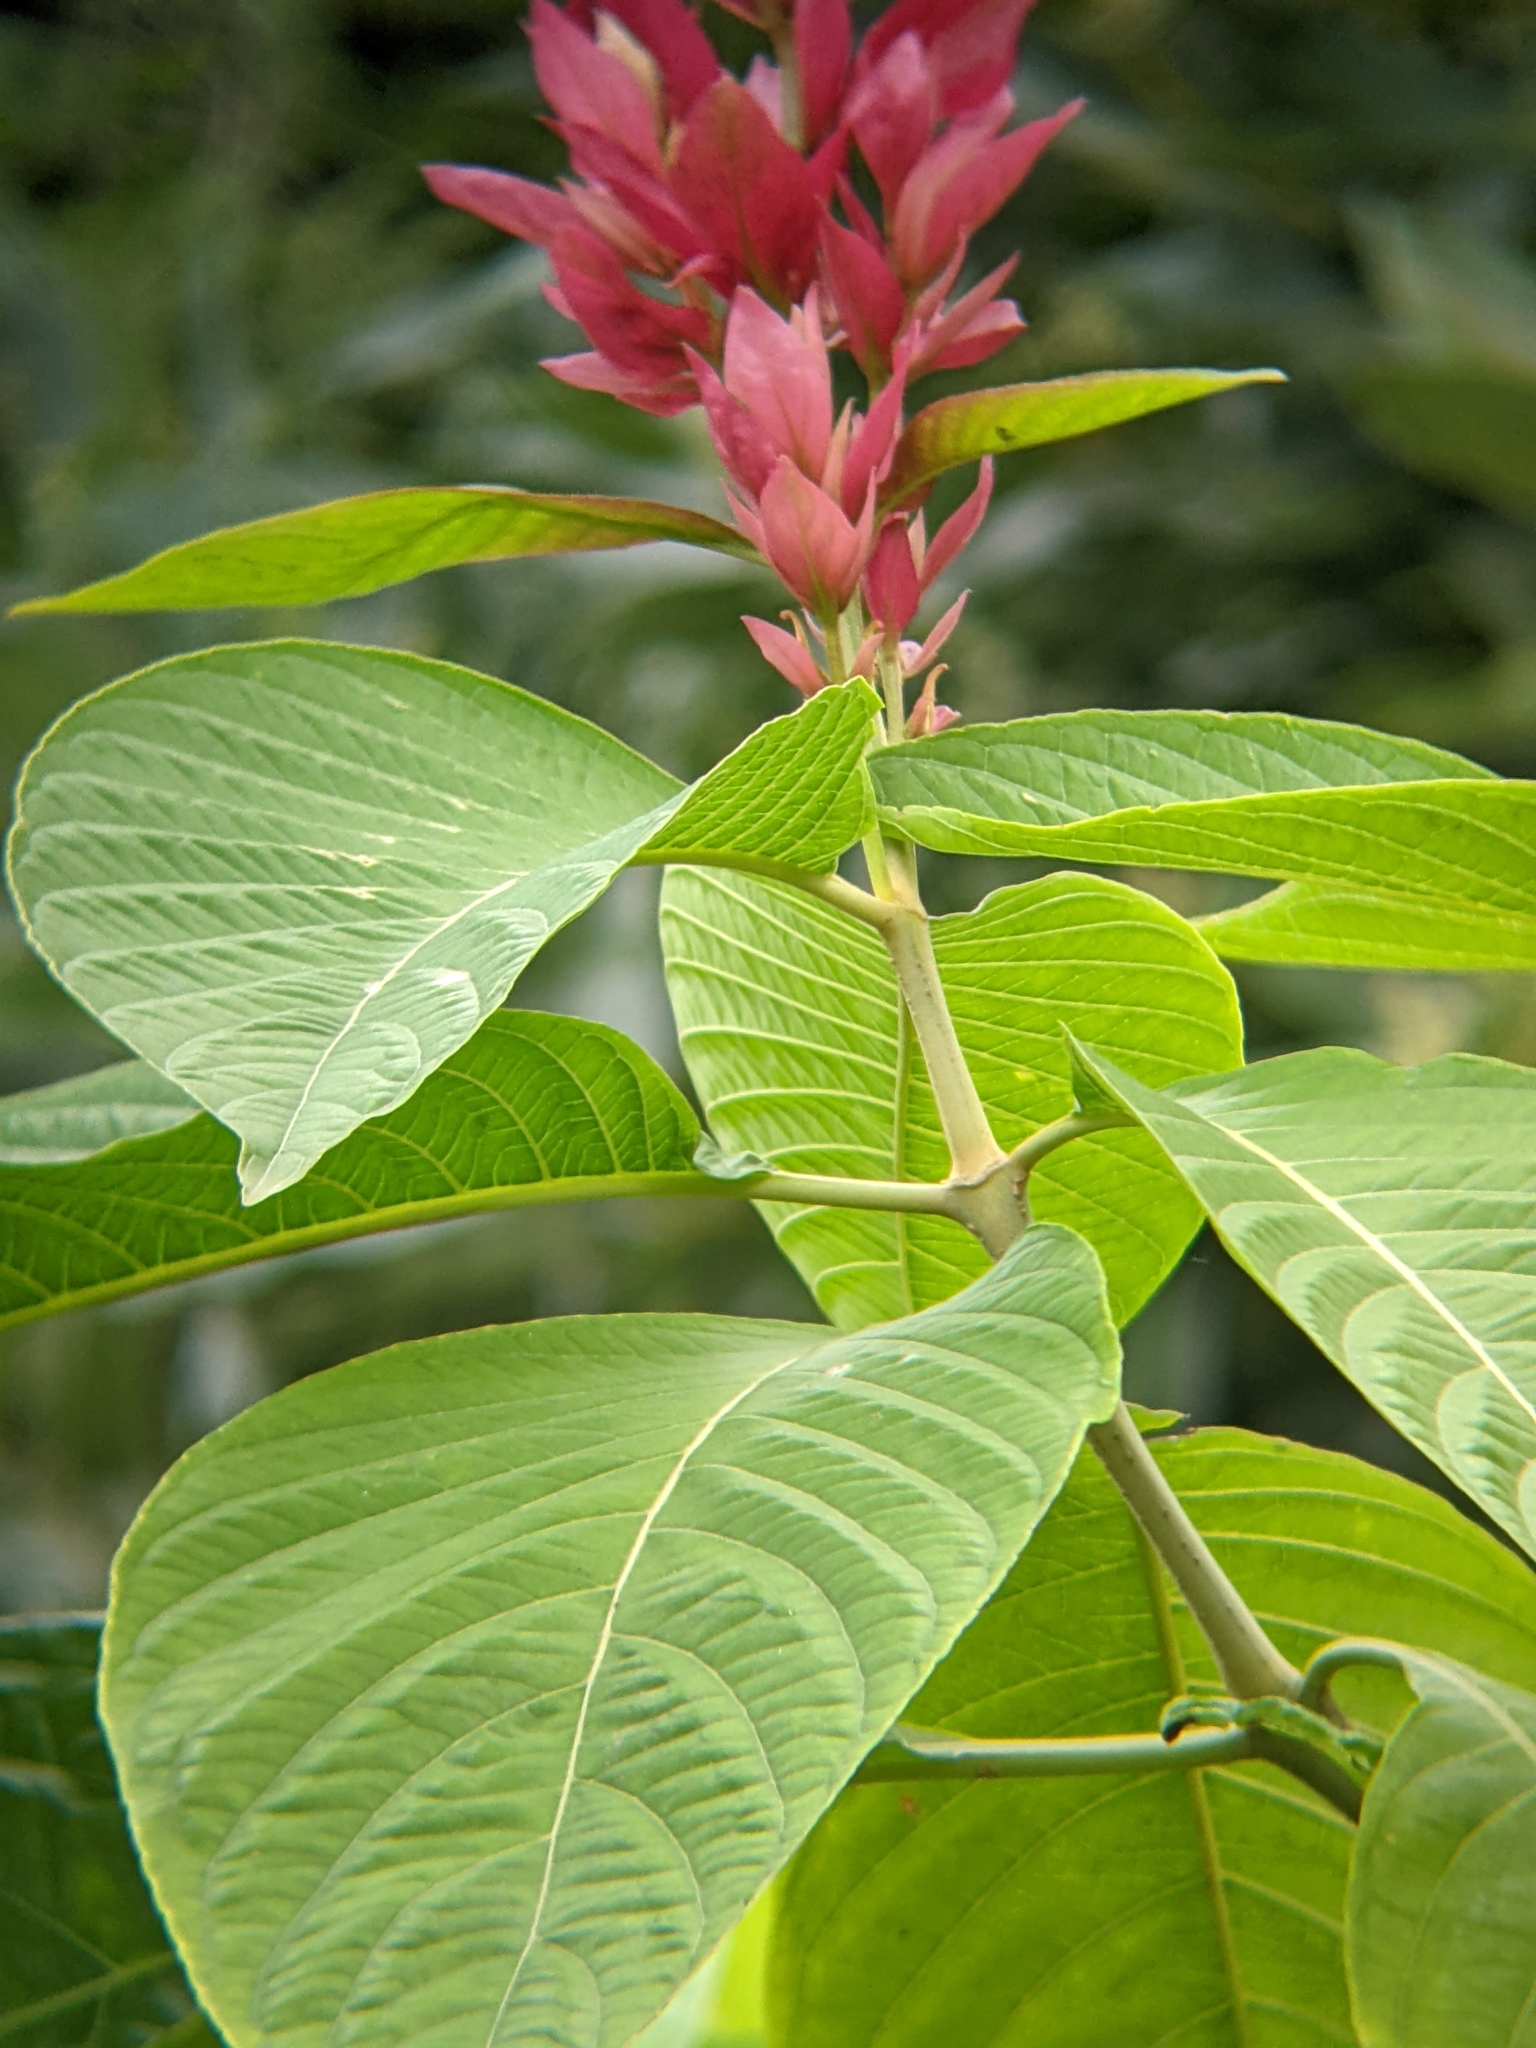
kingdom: Plantae
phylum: Tracheophyta
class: Magnoliopsida
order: Lamiales
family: Acanthaceae
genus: Megaskepasma
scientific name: Megaskepasma erythrochlamys
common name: Brazilian red-cloak
